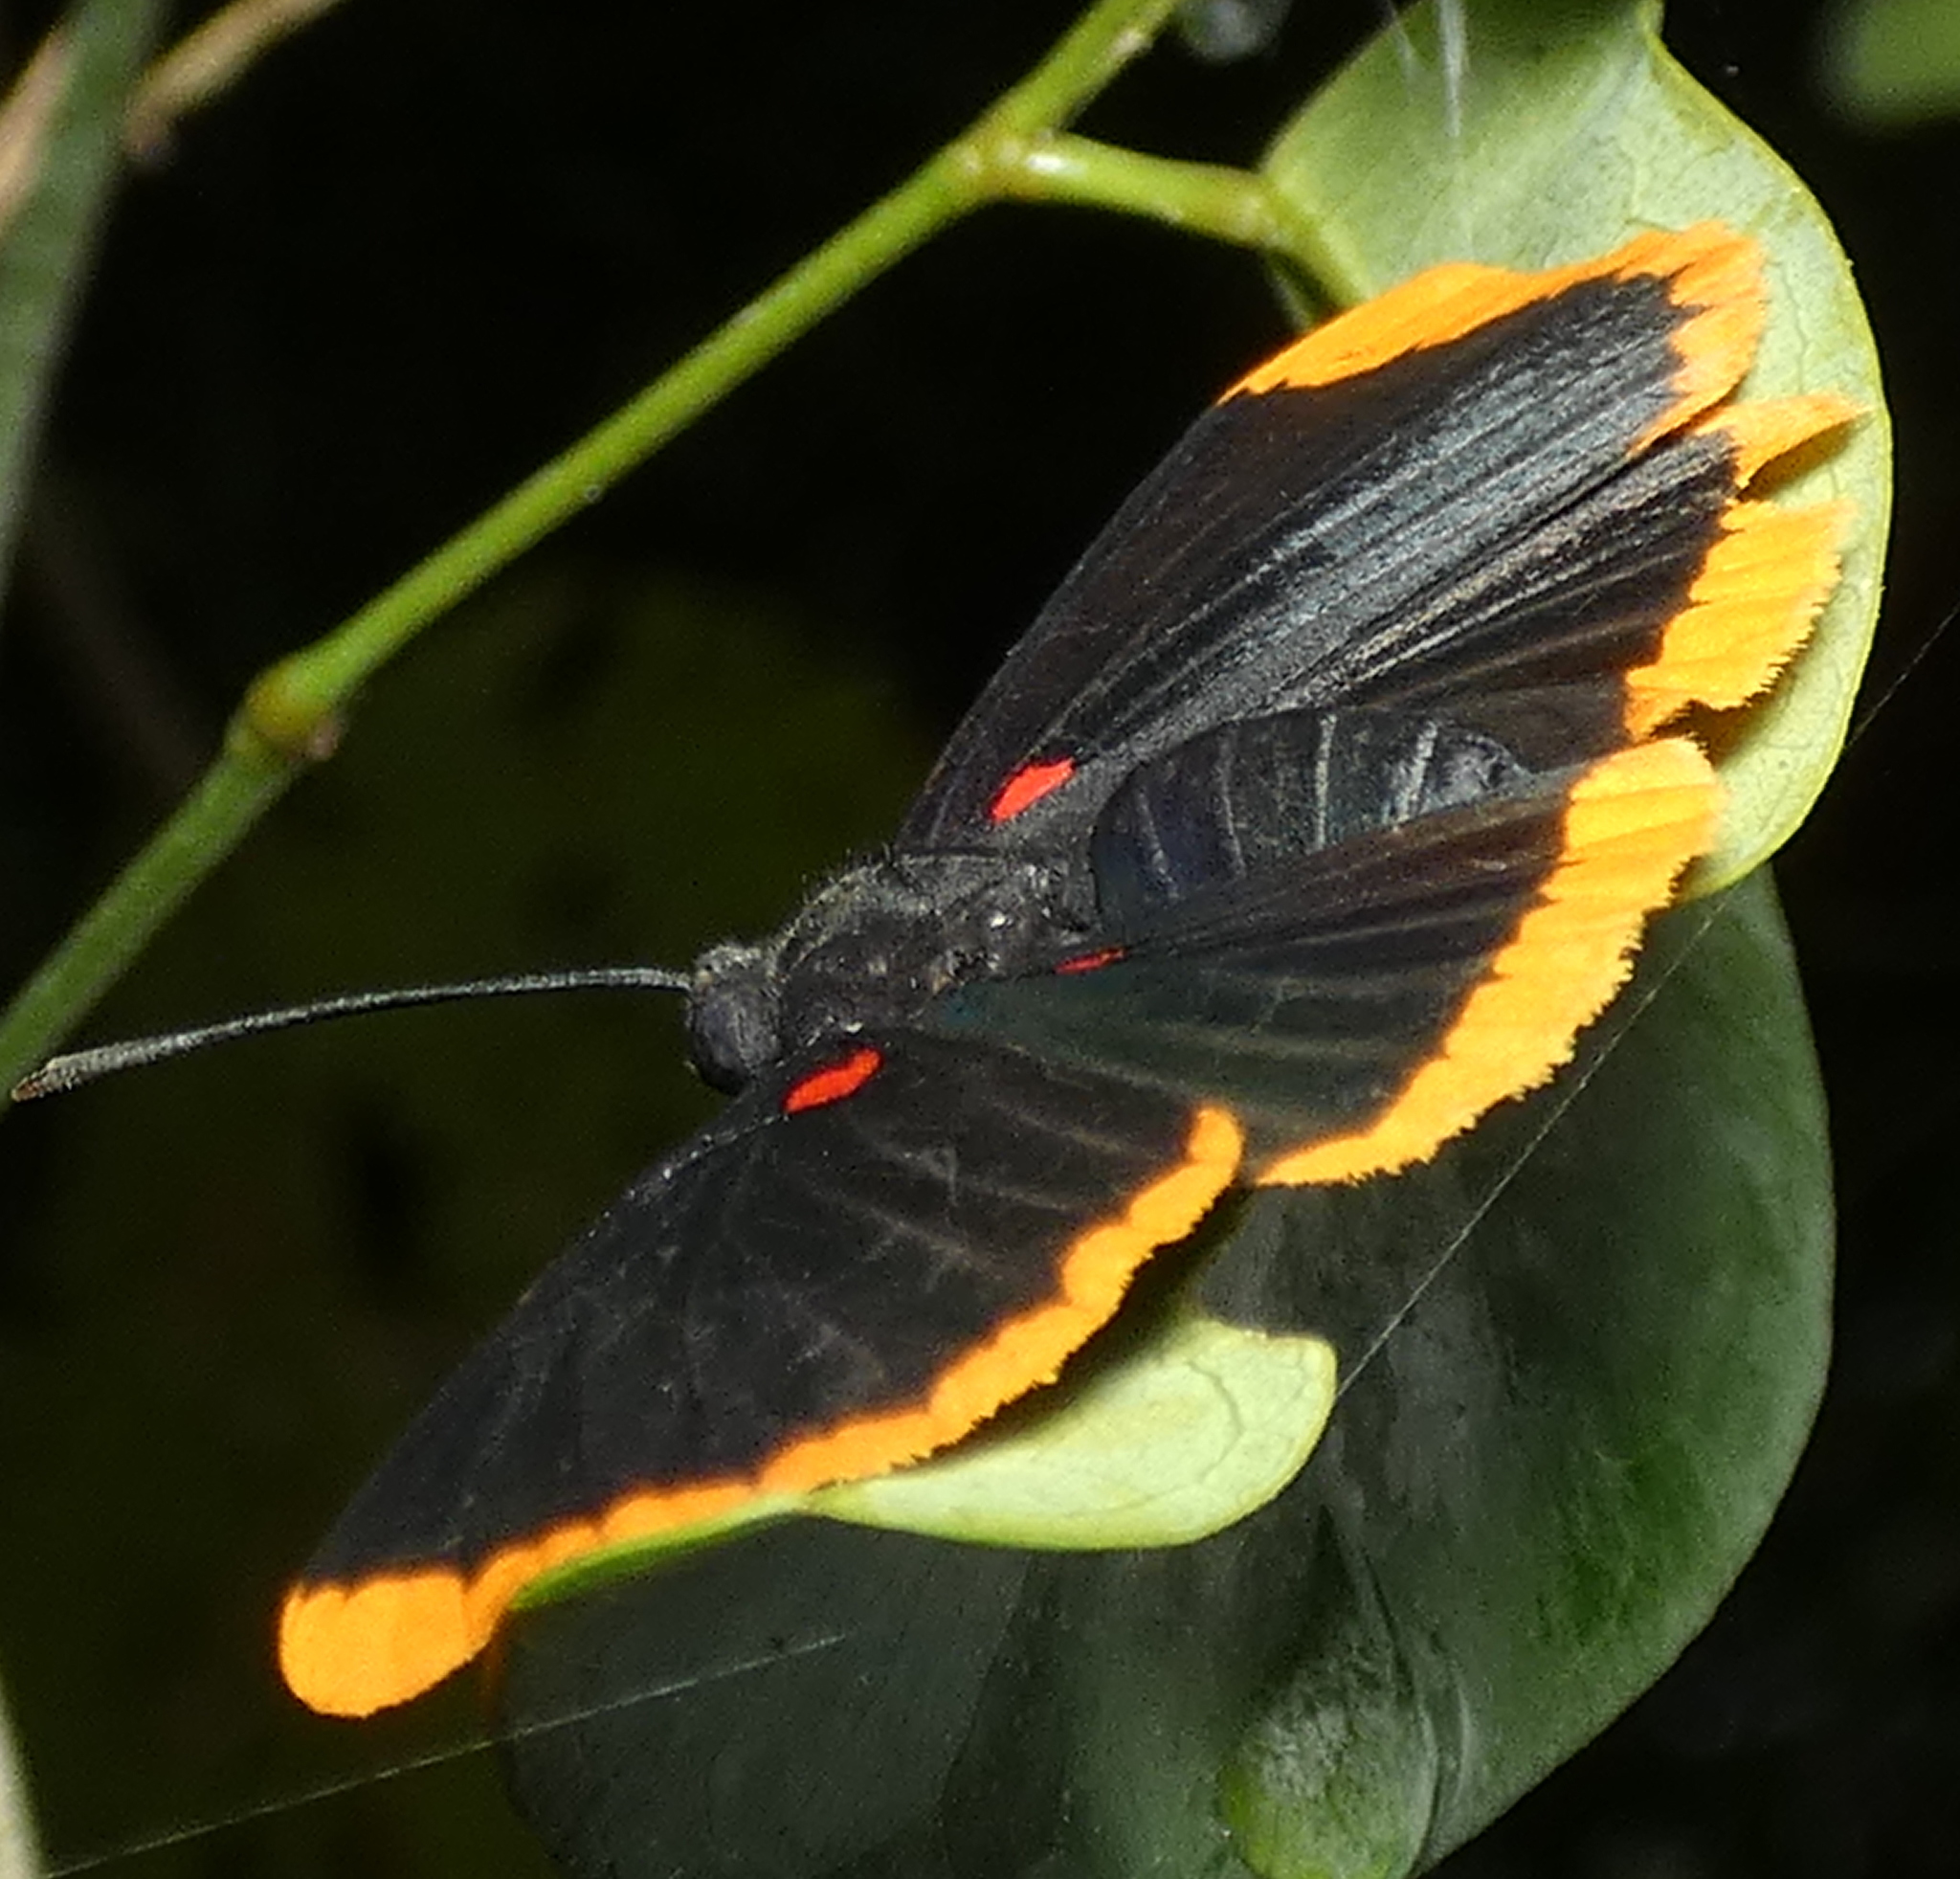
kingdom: Animalia
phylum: Arthropoda
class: Insecta
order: Lepidoptera
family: Lycaenidae
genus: Melanis
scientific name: Melanis smithiae
